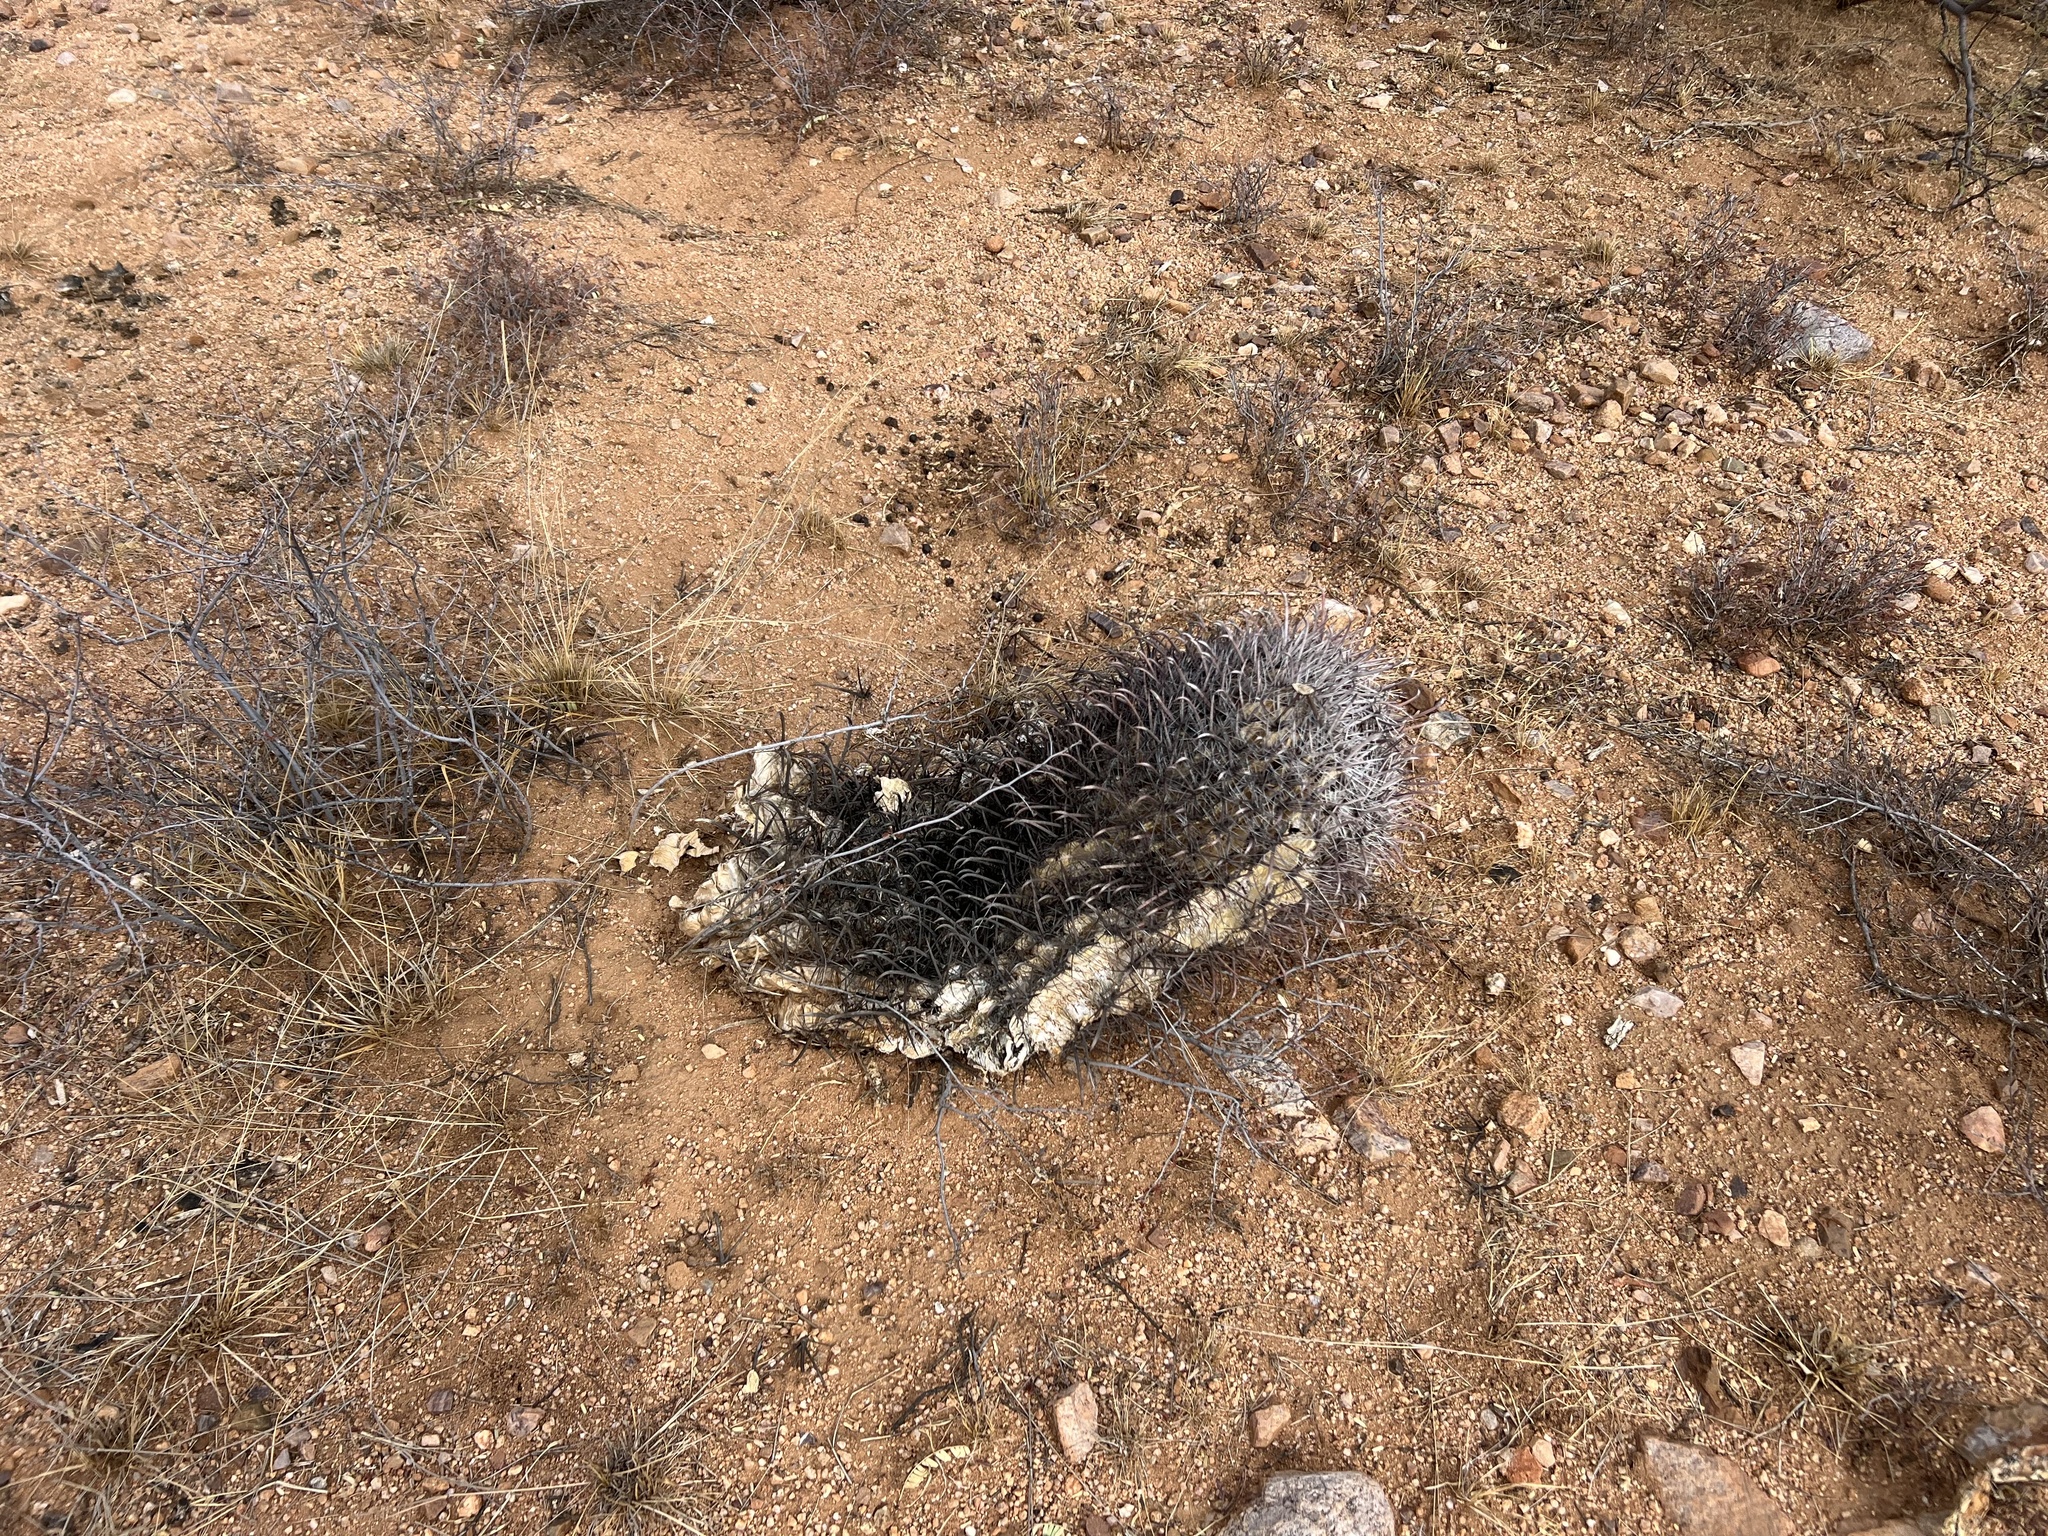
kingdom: Plantae
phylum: Tracheophyta
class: Magnoliopsida
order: Caryophyllales
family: Cactaceae
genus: Ferocactus
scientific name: Ferocactus wislizeni
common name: Candy barrel cactus
